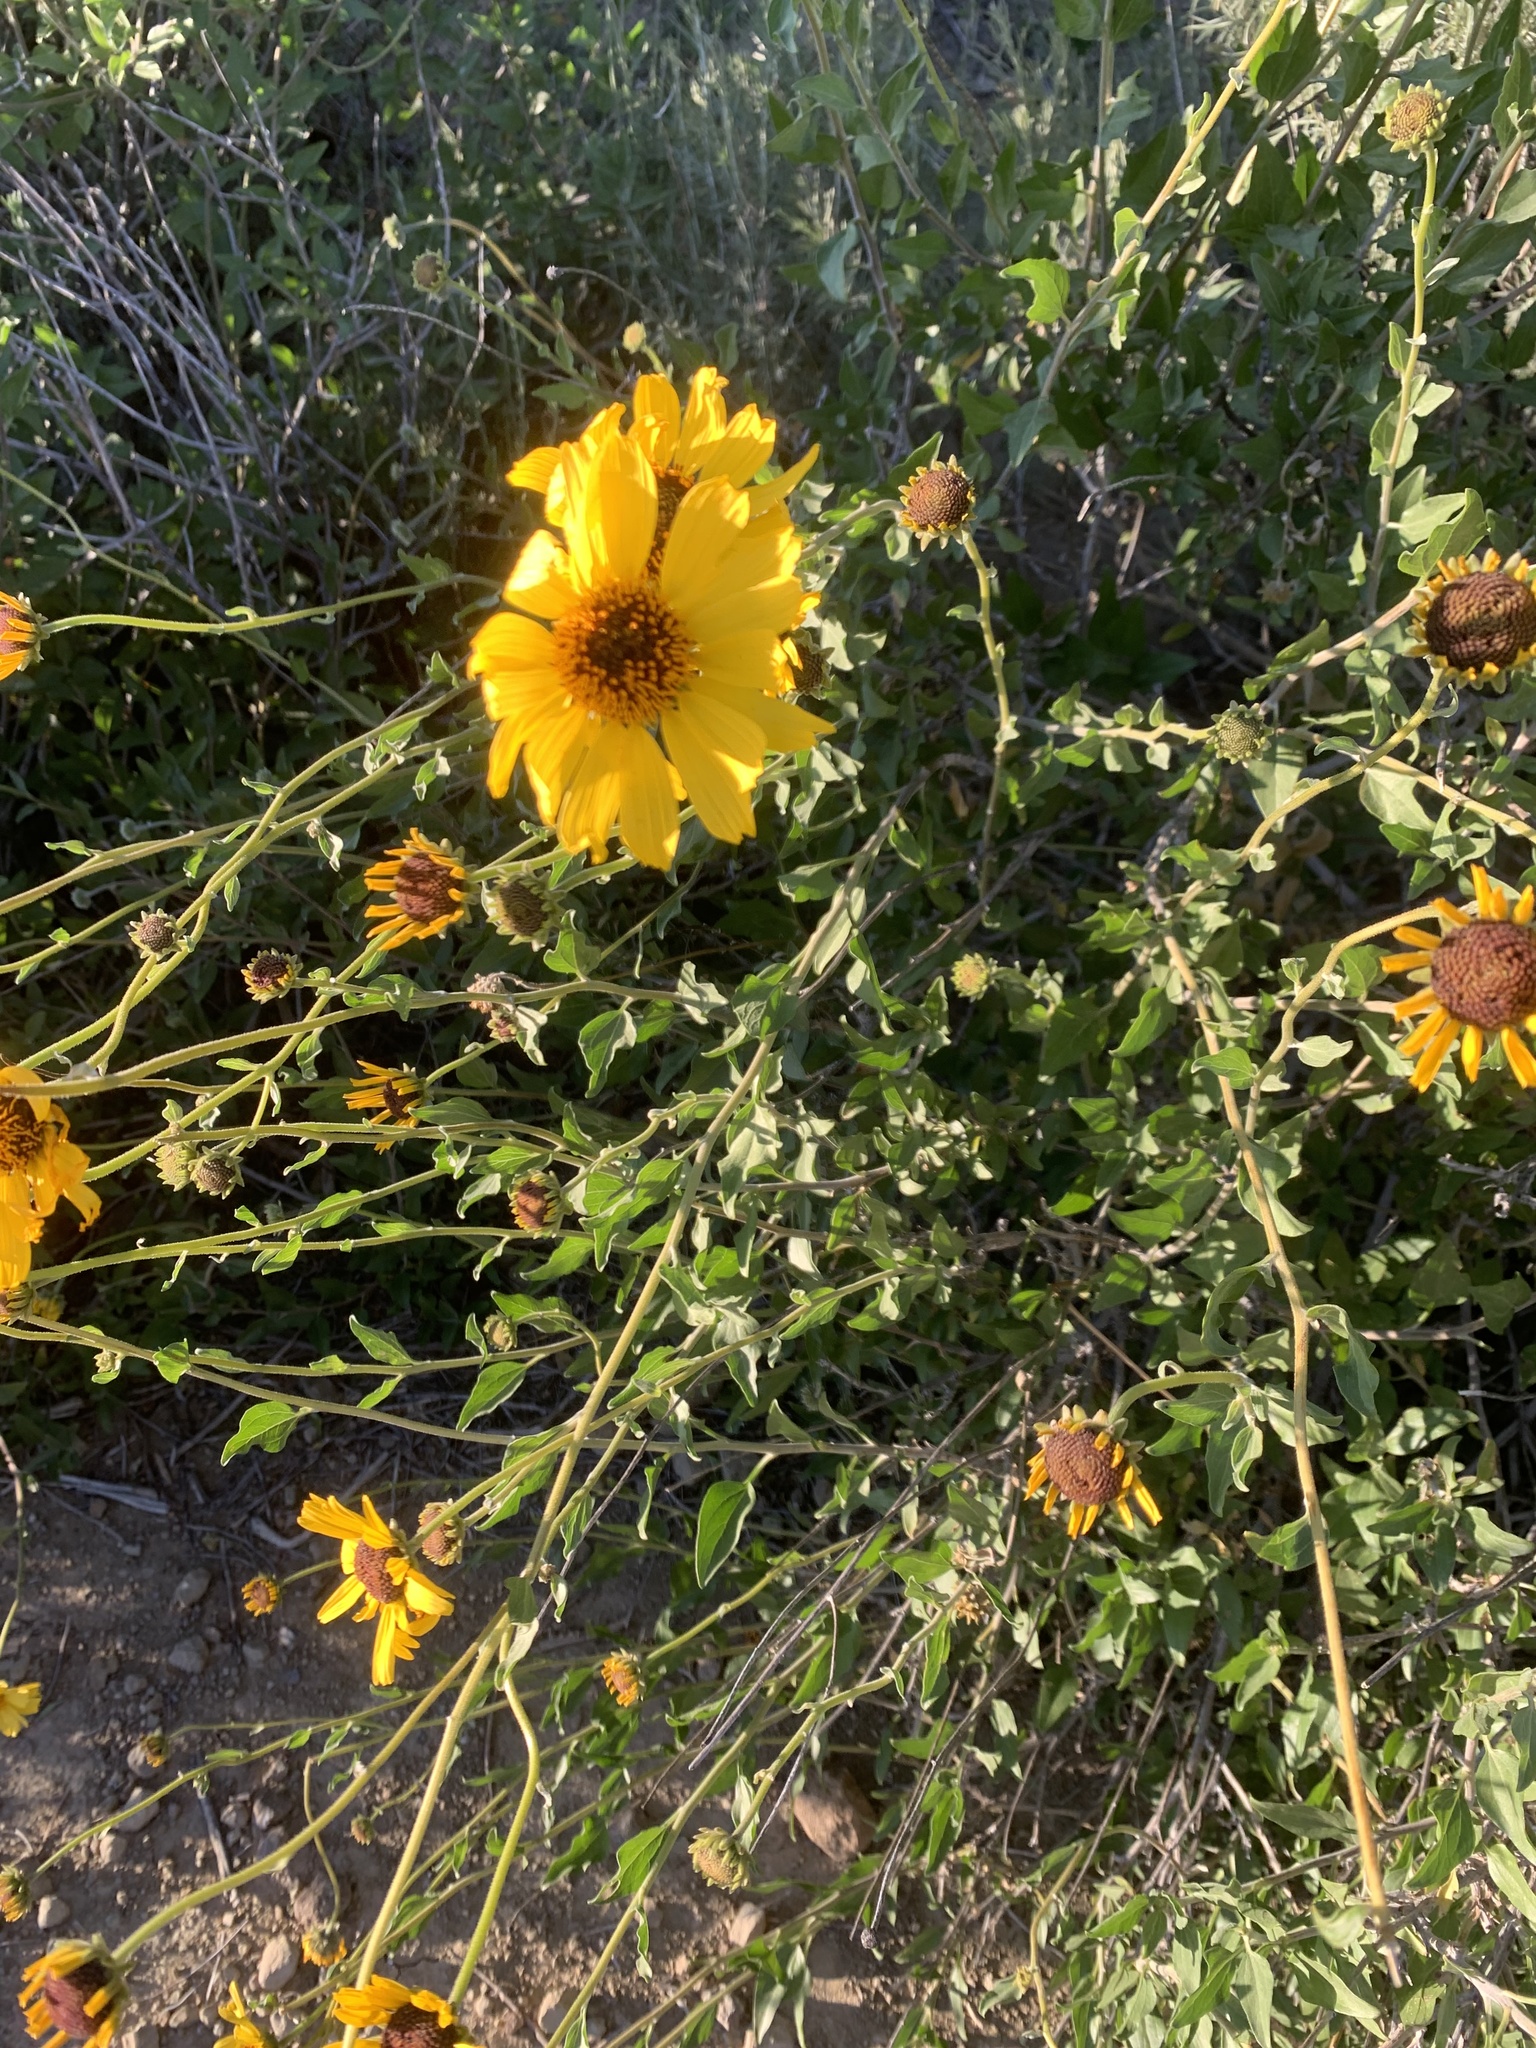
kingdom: Plantae
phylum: Tracheophyta
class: Magnoliopsida
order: Asterales
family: Asteraceae
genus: Encelia
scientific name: Encelia californica
